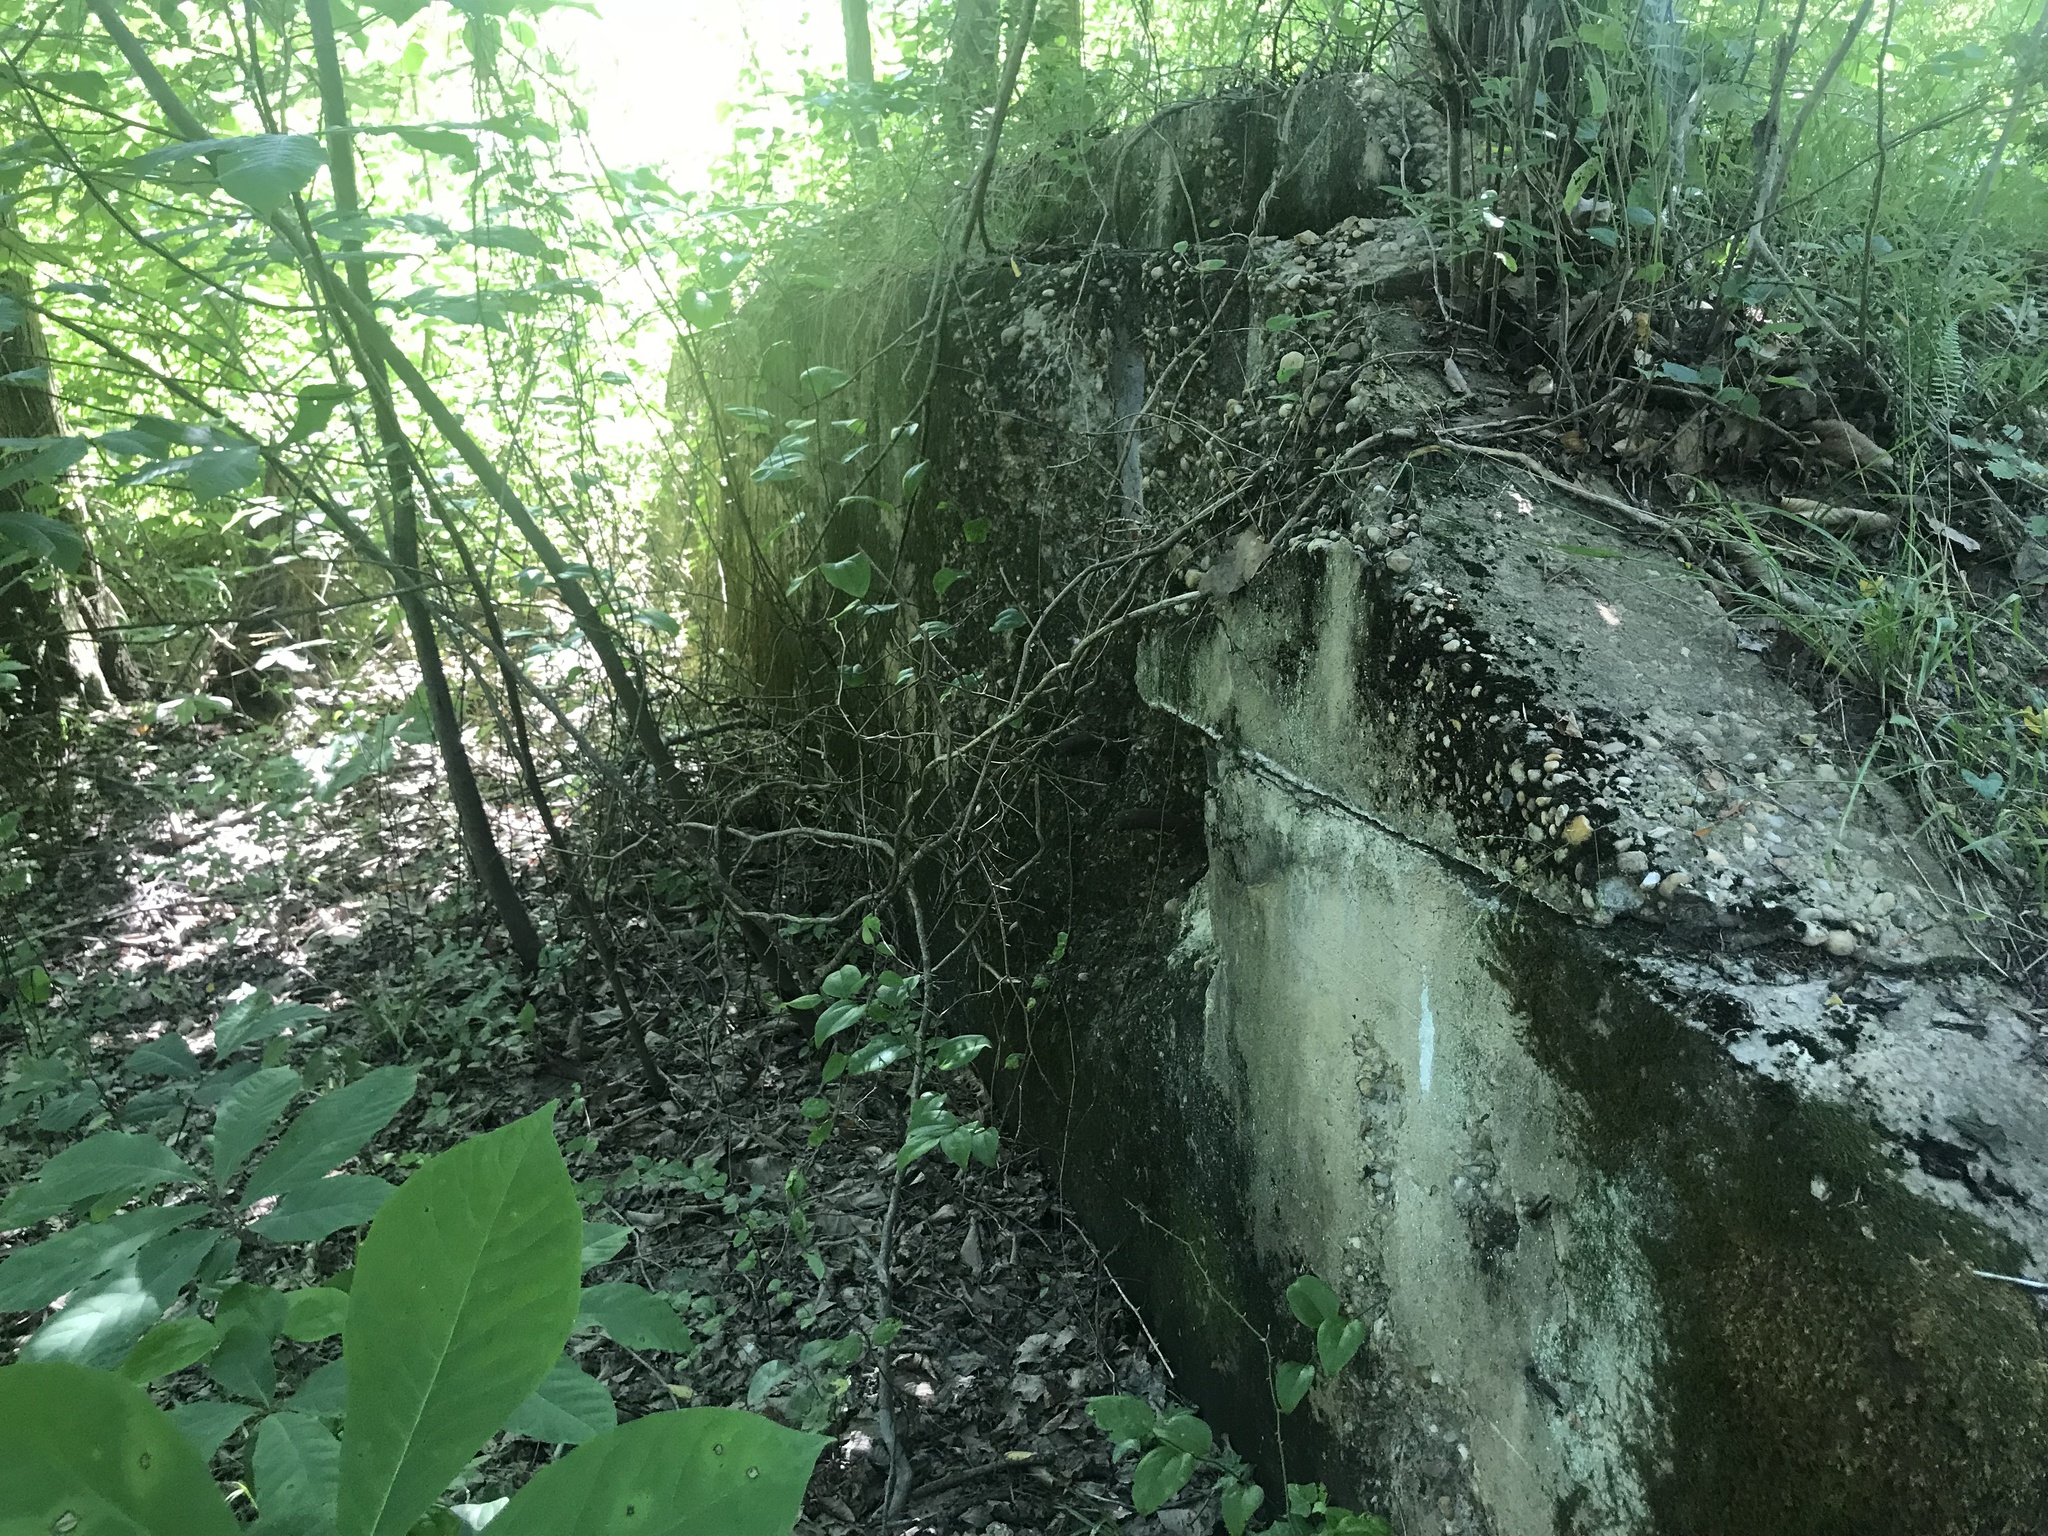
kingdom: Plantae
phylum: Tracheophyta
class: Magnoliopsida
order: Magnoliales
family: Annonaceae
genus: Asimina
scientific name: Asimina triloba
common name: Dog-banana
